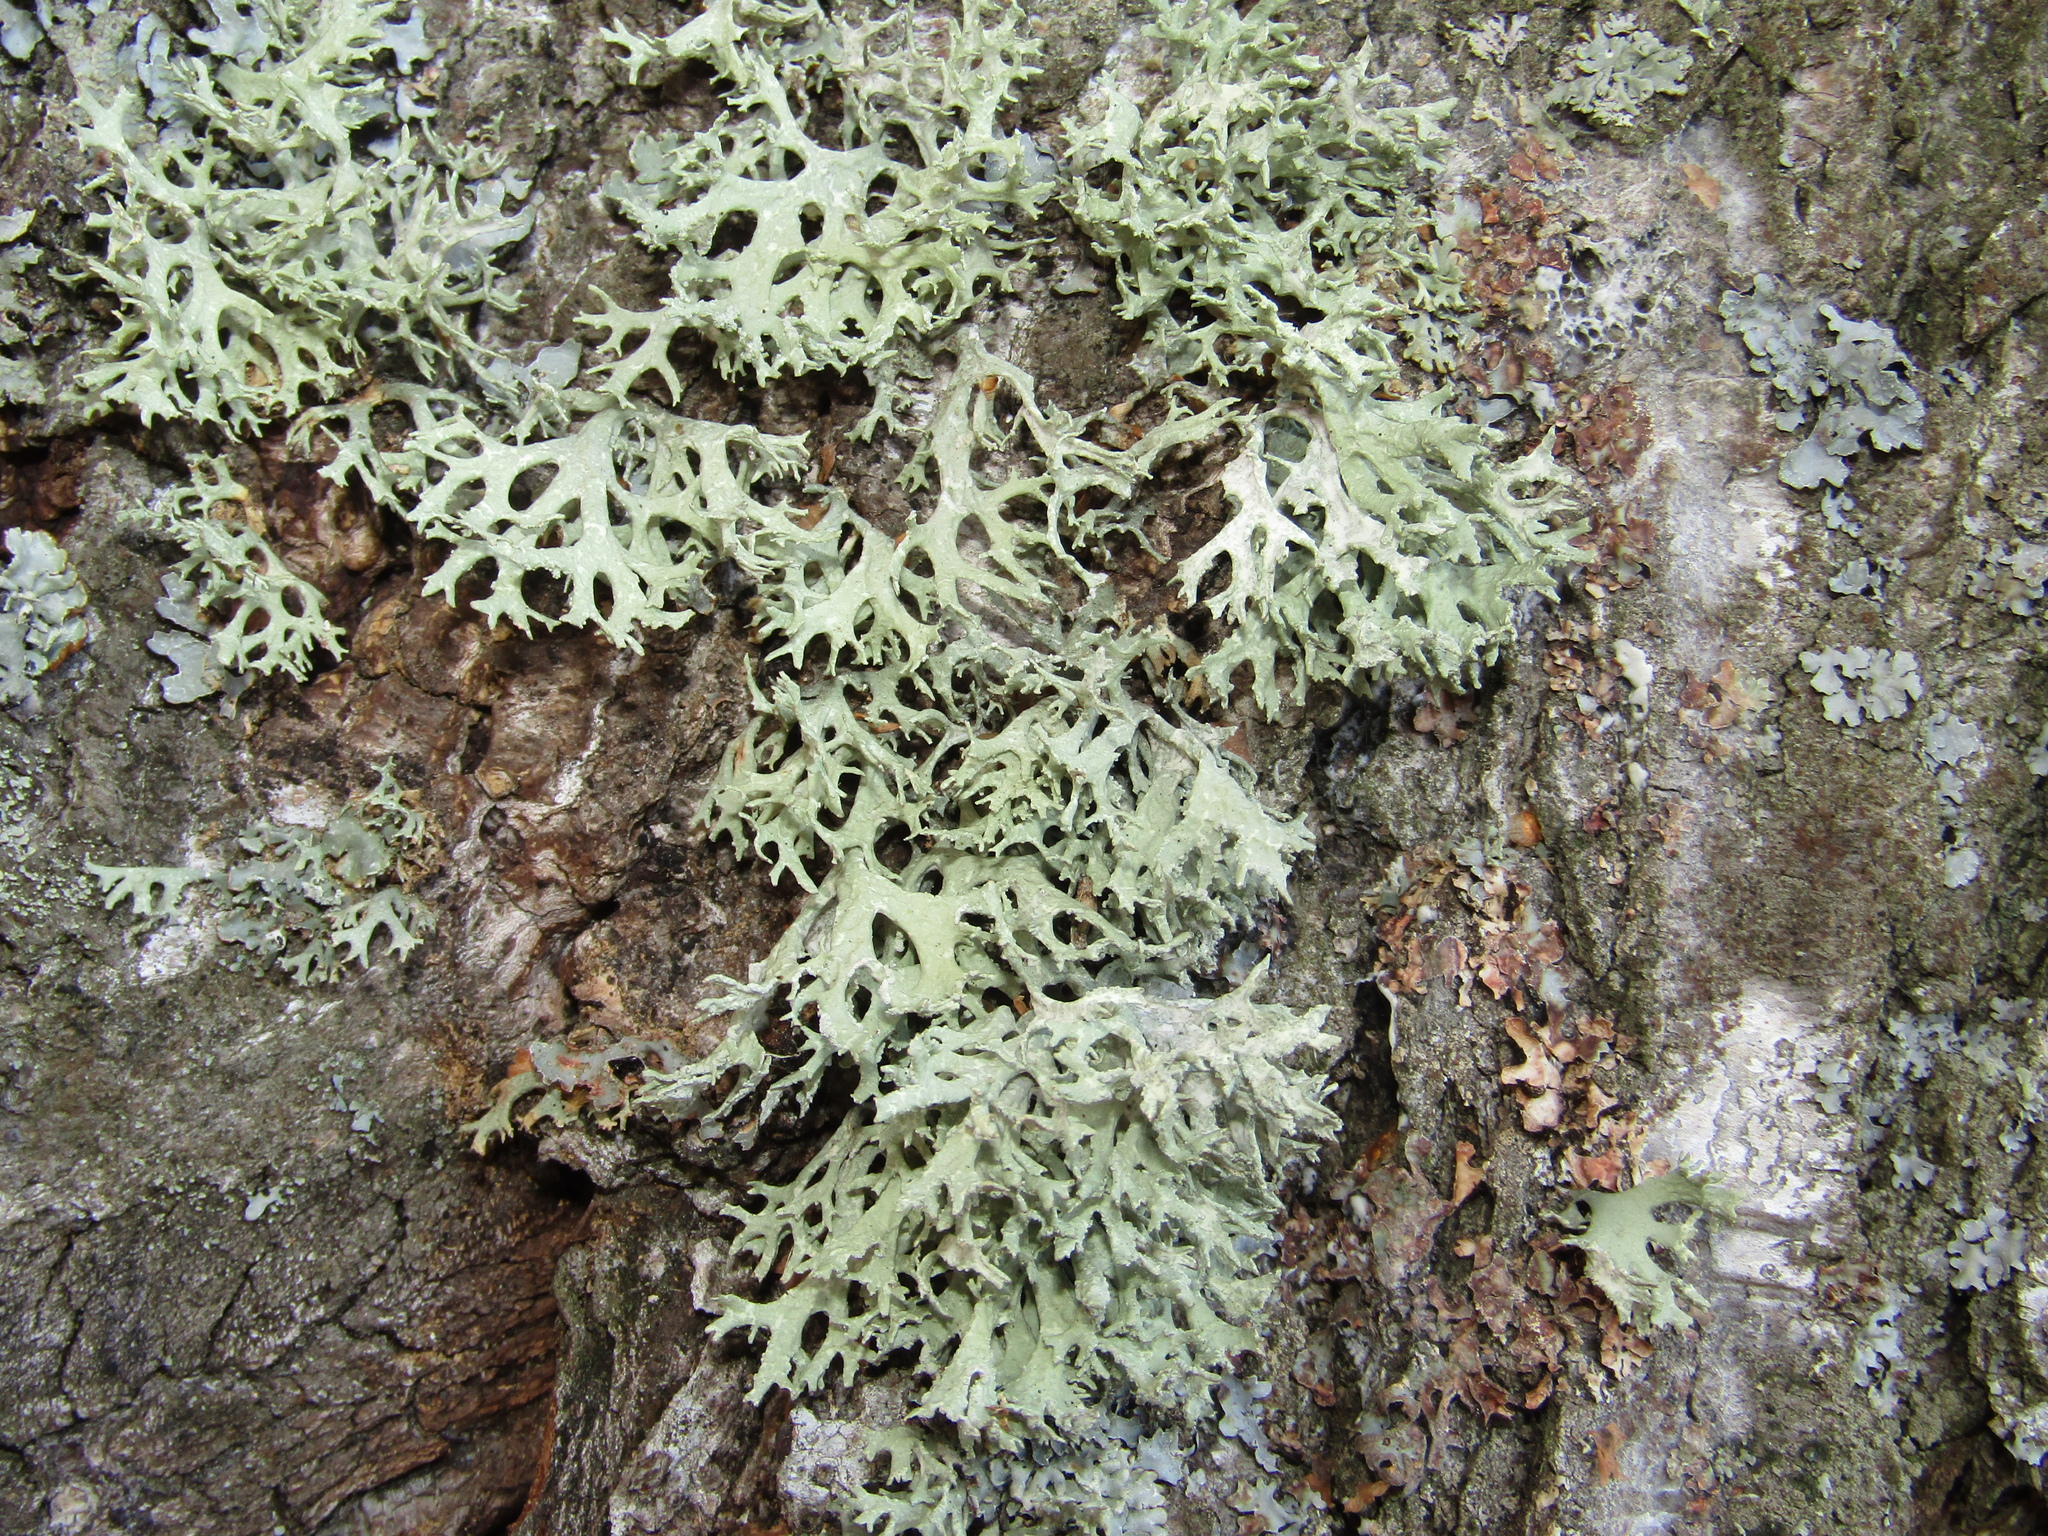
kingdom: Fungi
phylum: Ascomycota
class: Lecanoromycetes
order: Lecanorales
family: Parmeliaceae
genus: Evernia
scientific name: Evernia prunastri
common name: Oak moss
